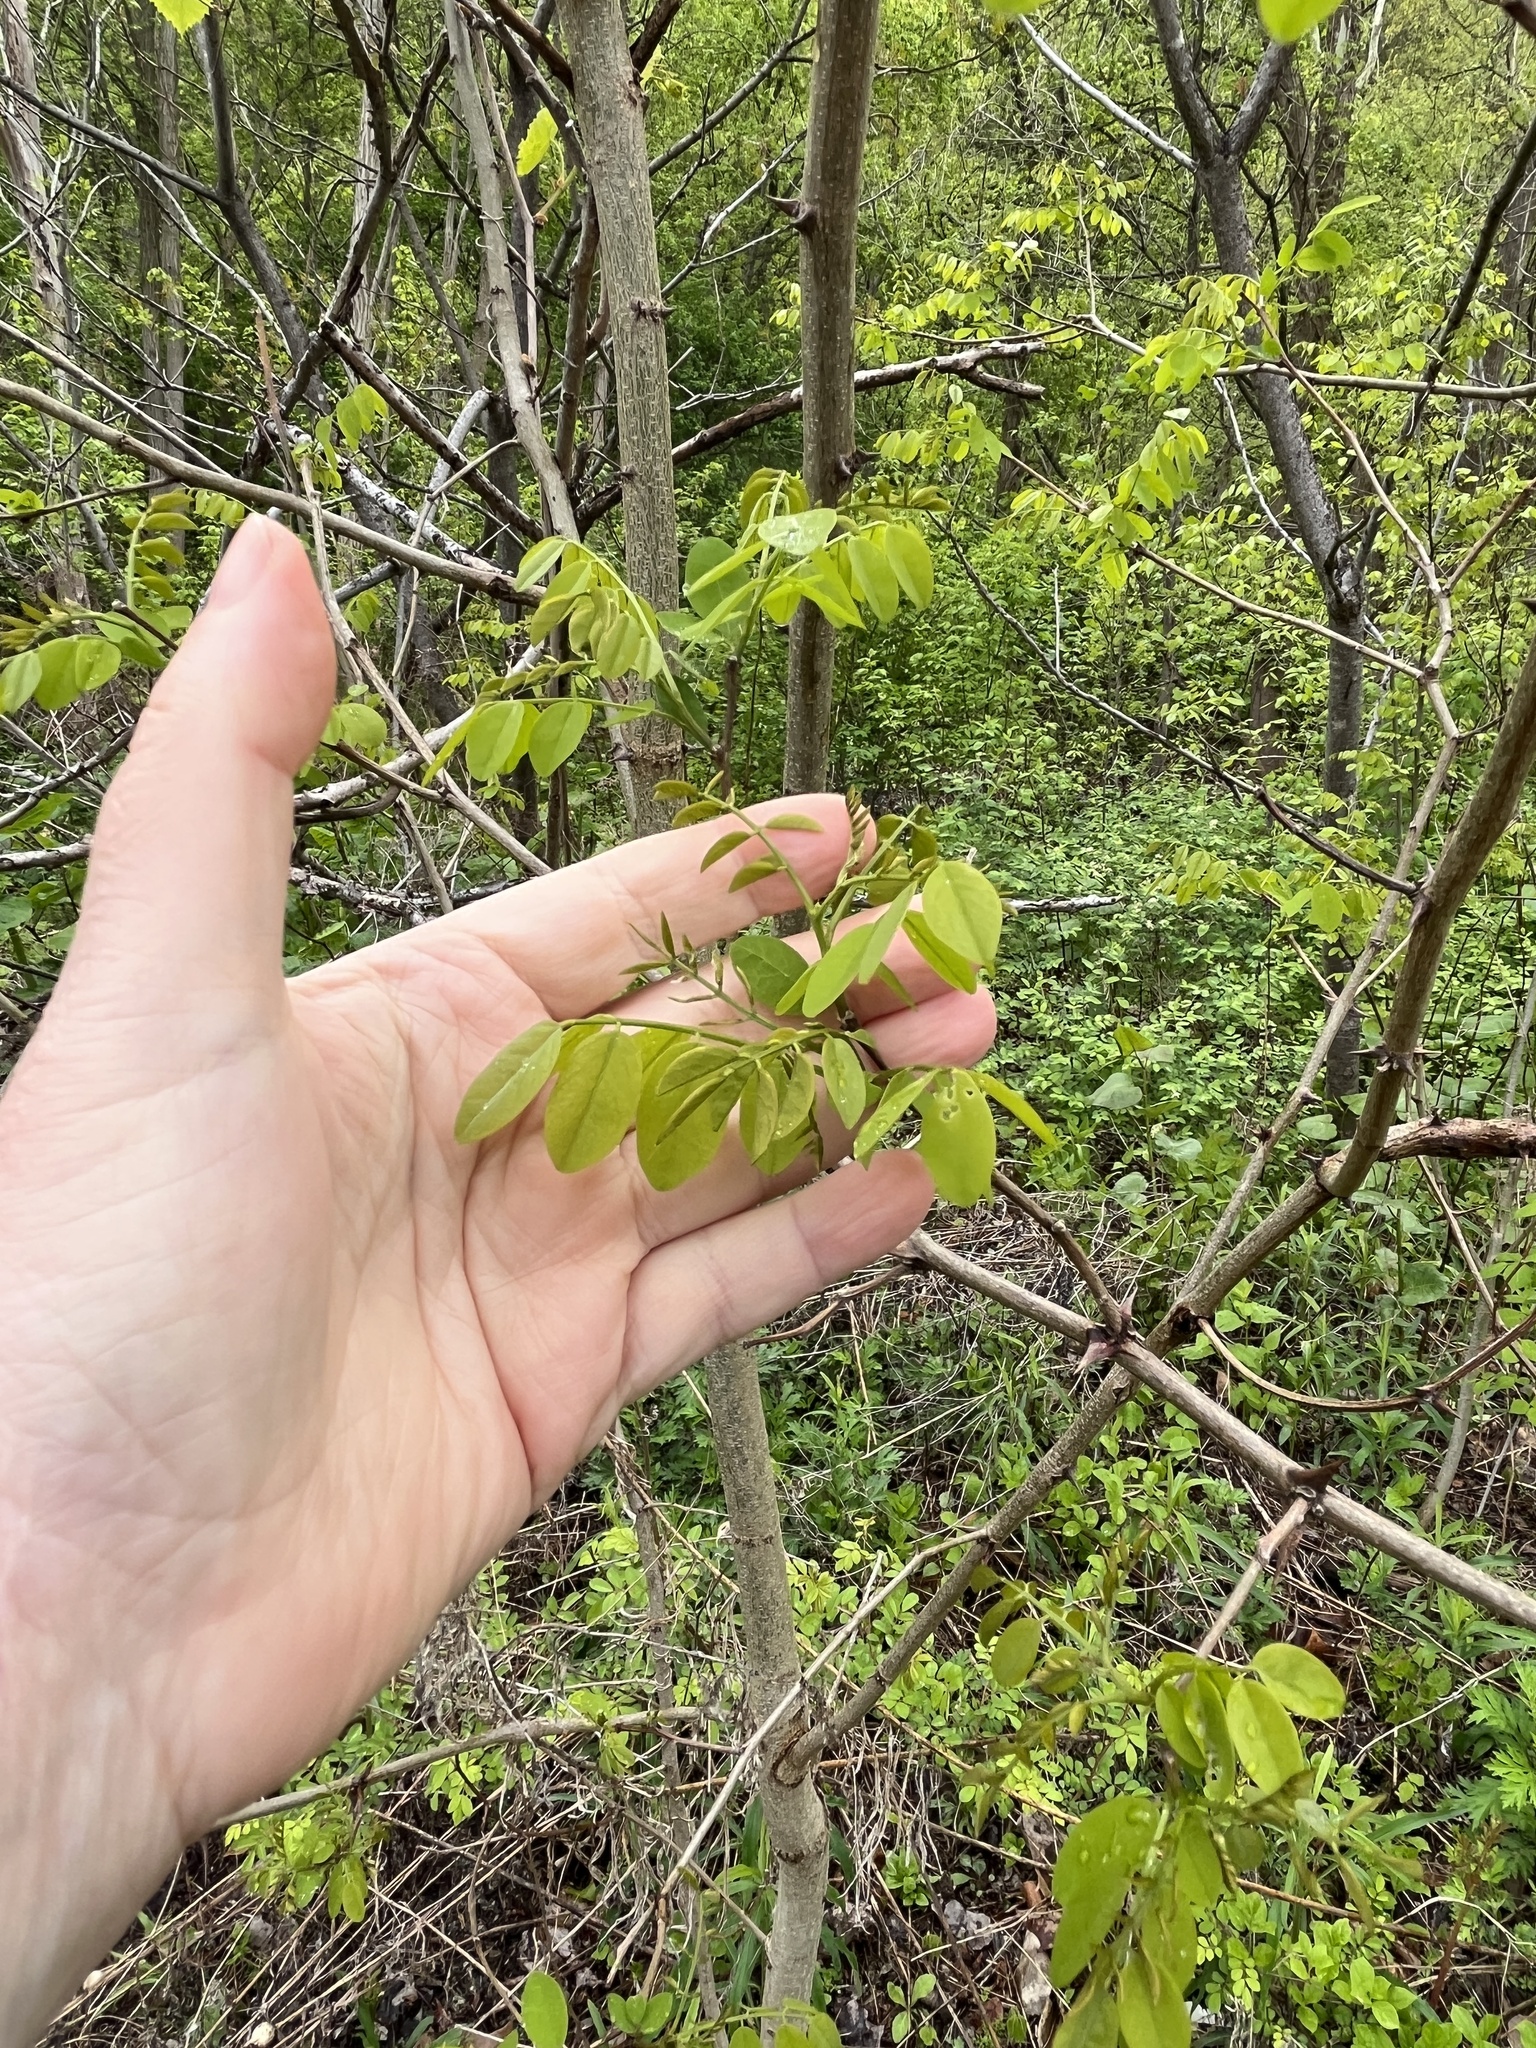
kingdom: Plantae
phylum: Tracheophyta
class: Magnoliopsida
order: Fabales
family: Fabaceae
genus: Robinia
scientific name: Robinia pseudoacacia
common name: Black locust
